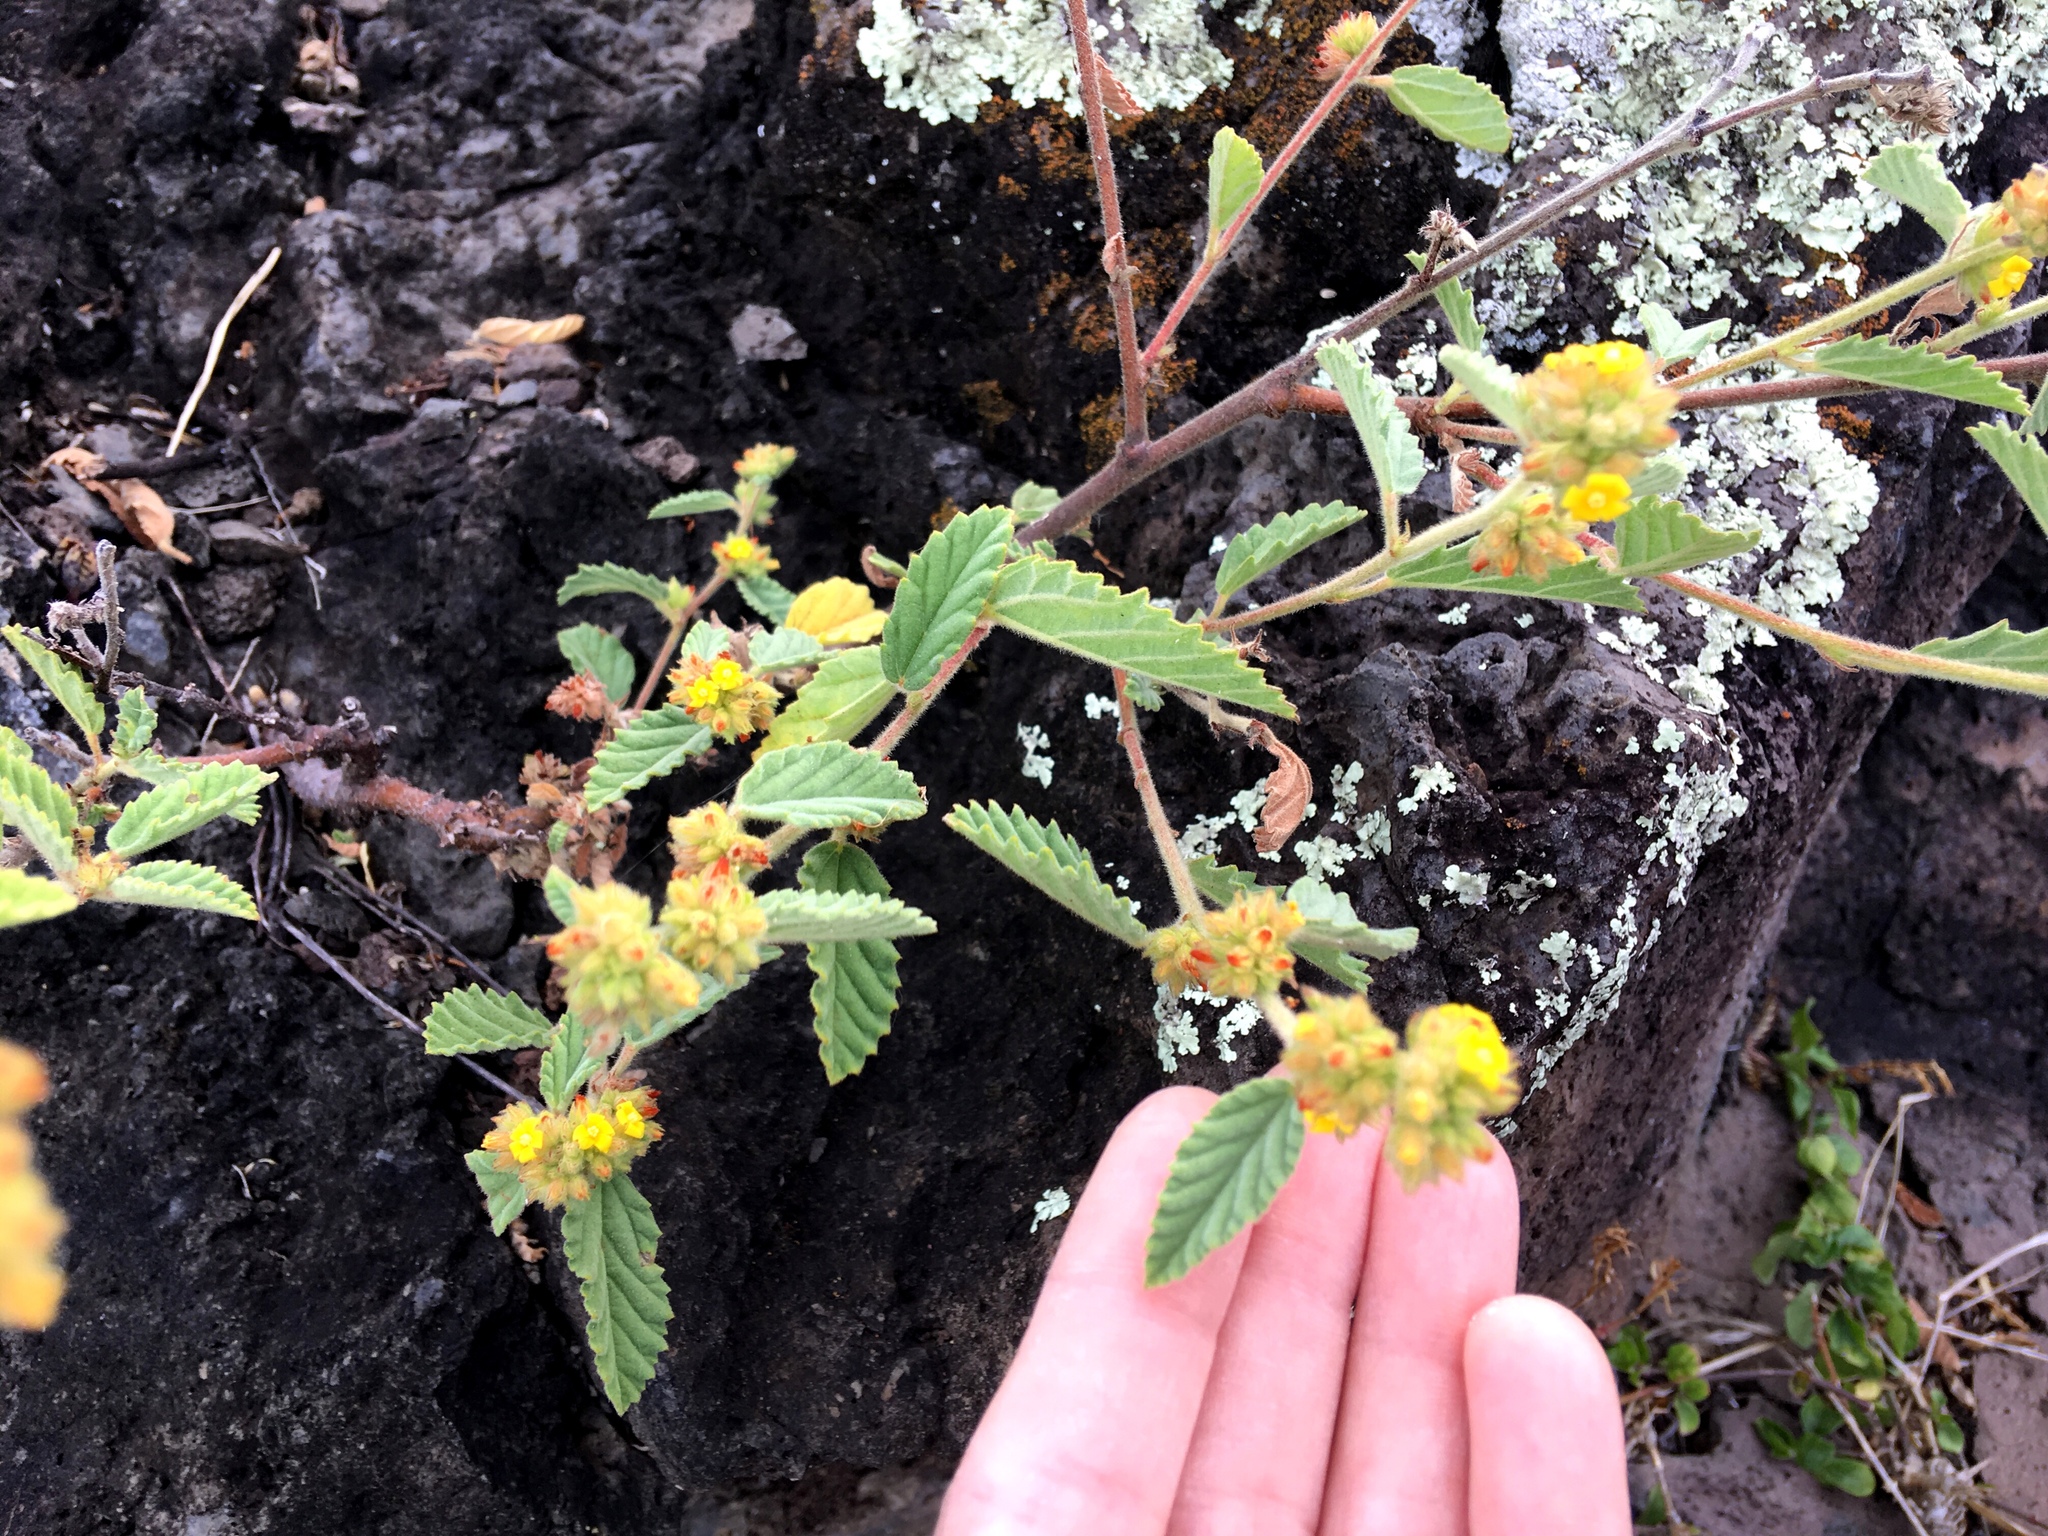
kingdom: Plantae
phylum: Tracheophyta
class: Magnoliopsida
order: Malvales
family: Malvaceae
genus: Waltheria
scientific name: Waltheria indica
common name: Leather-coat
